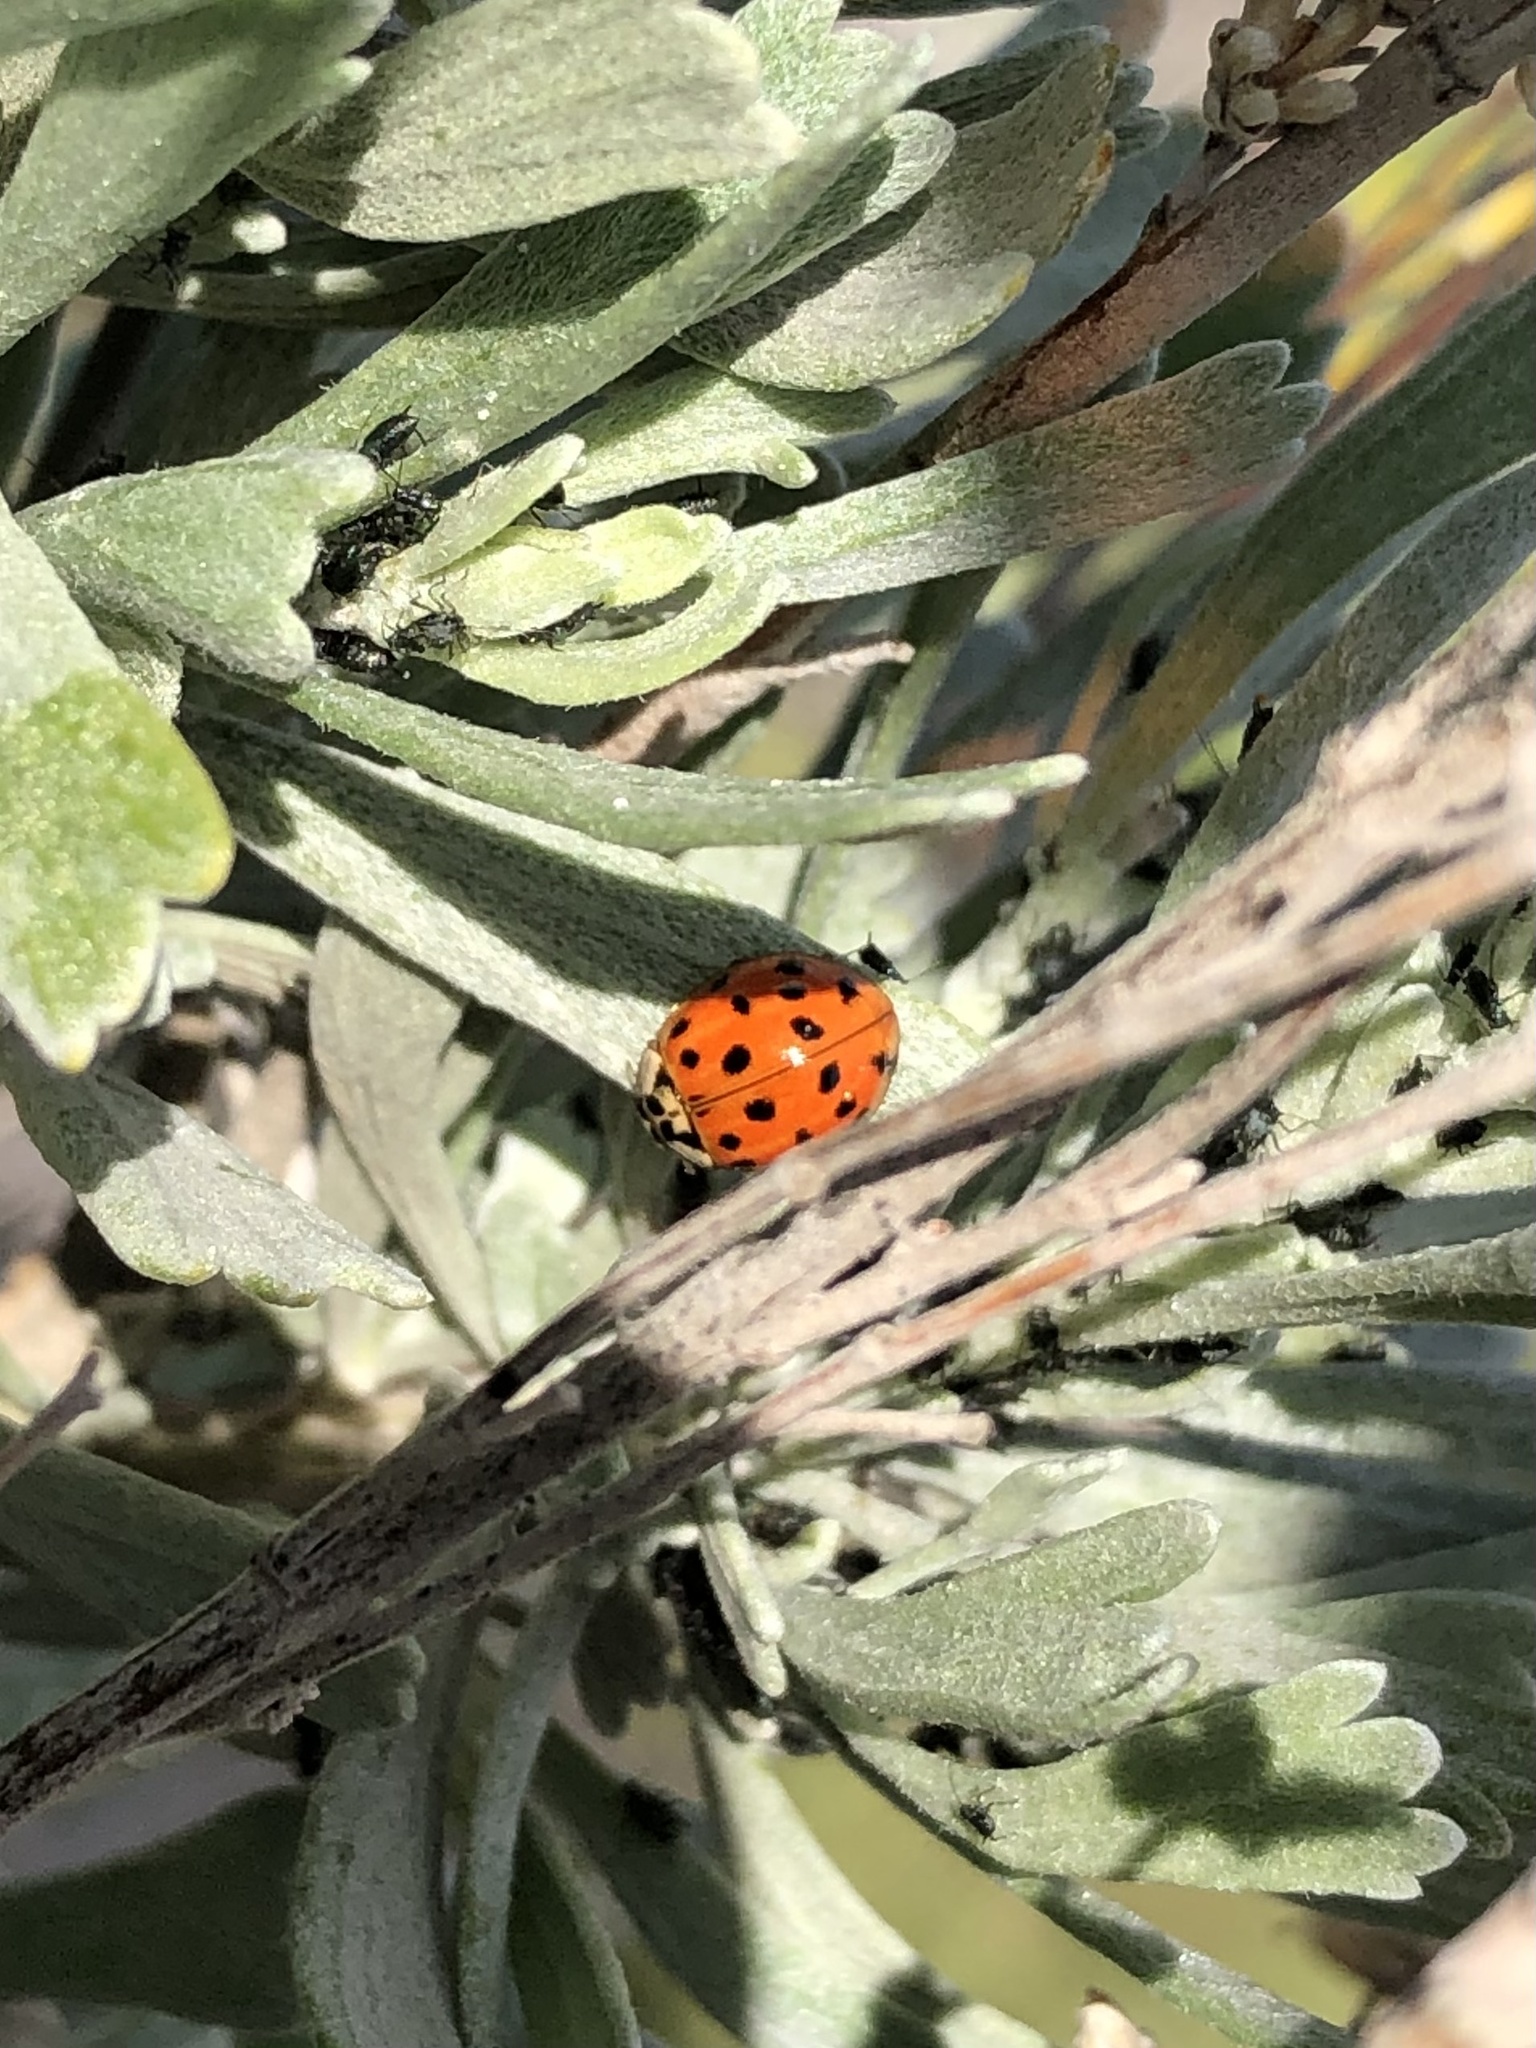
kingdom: Animalia
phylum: Arthropoda
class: Insecta
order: Coleoptera
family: Coccinellidae
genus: Harmonia
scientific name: Harmonia axyridis
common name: Harlequin ladybird
